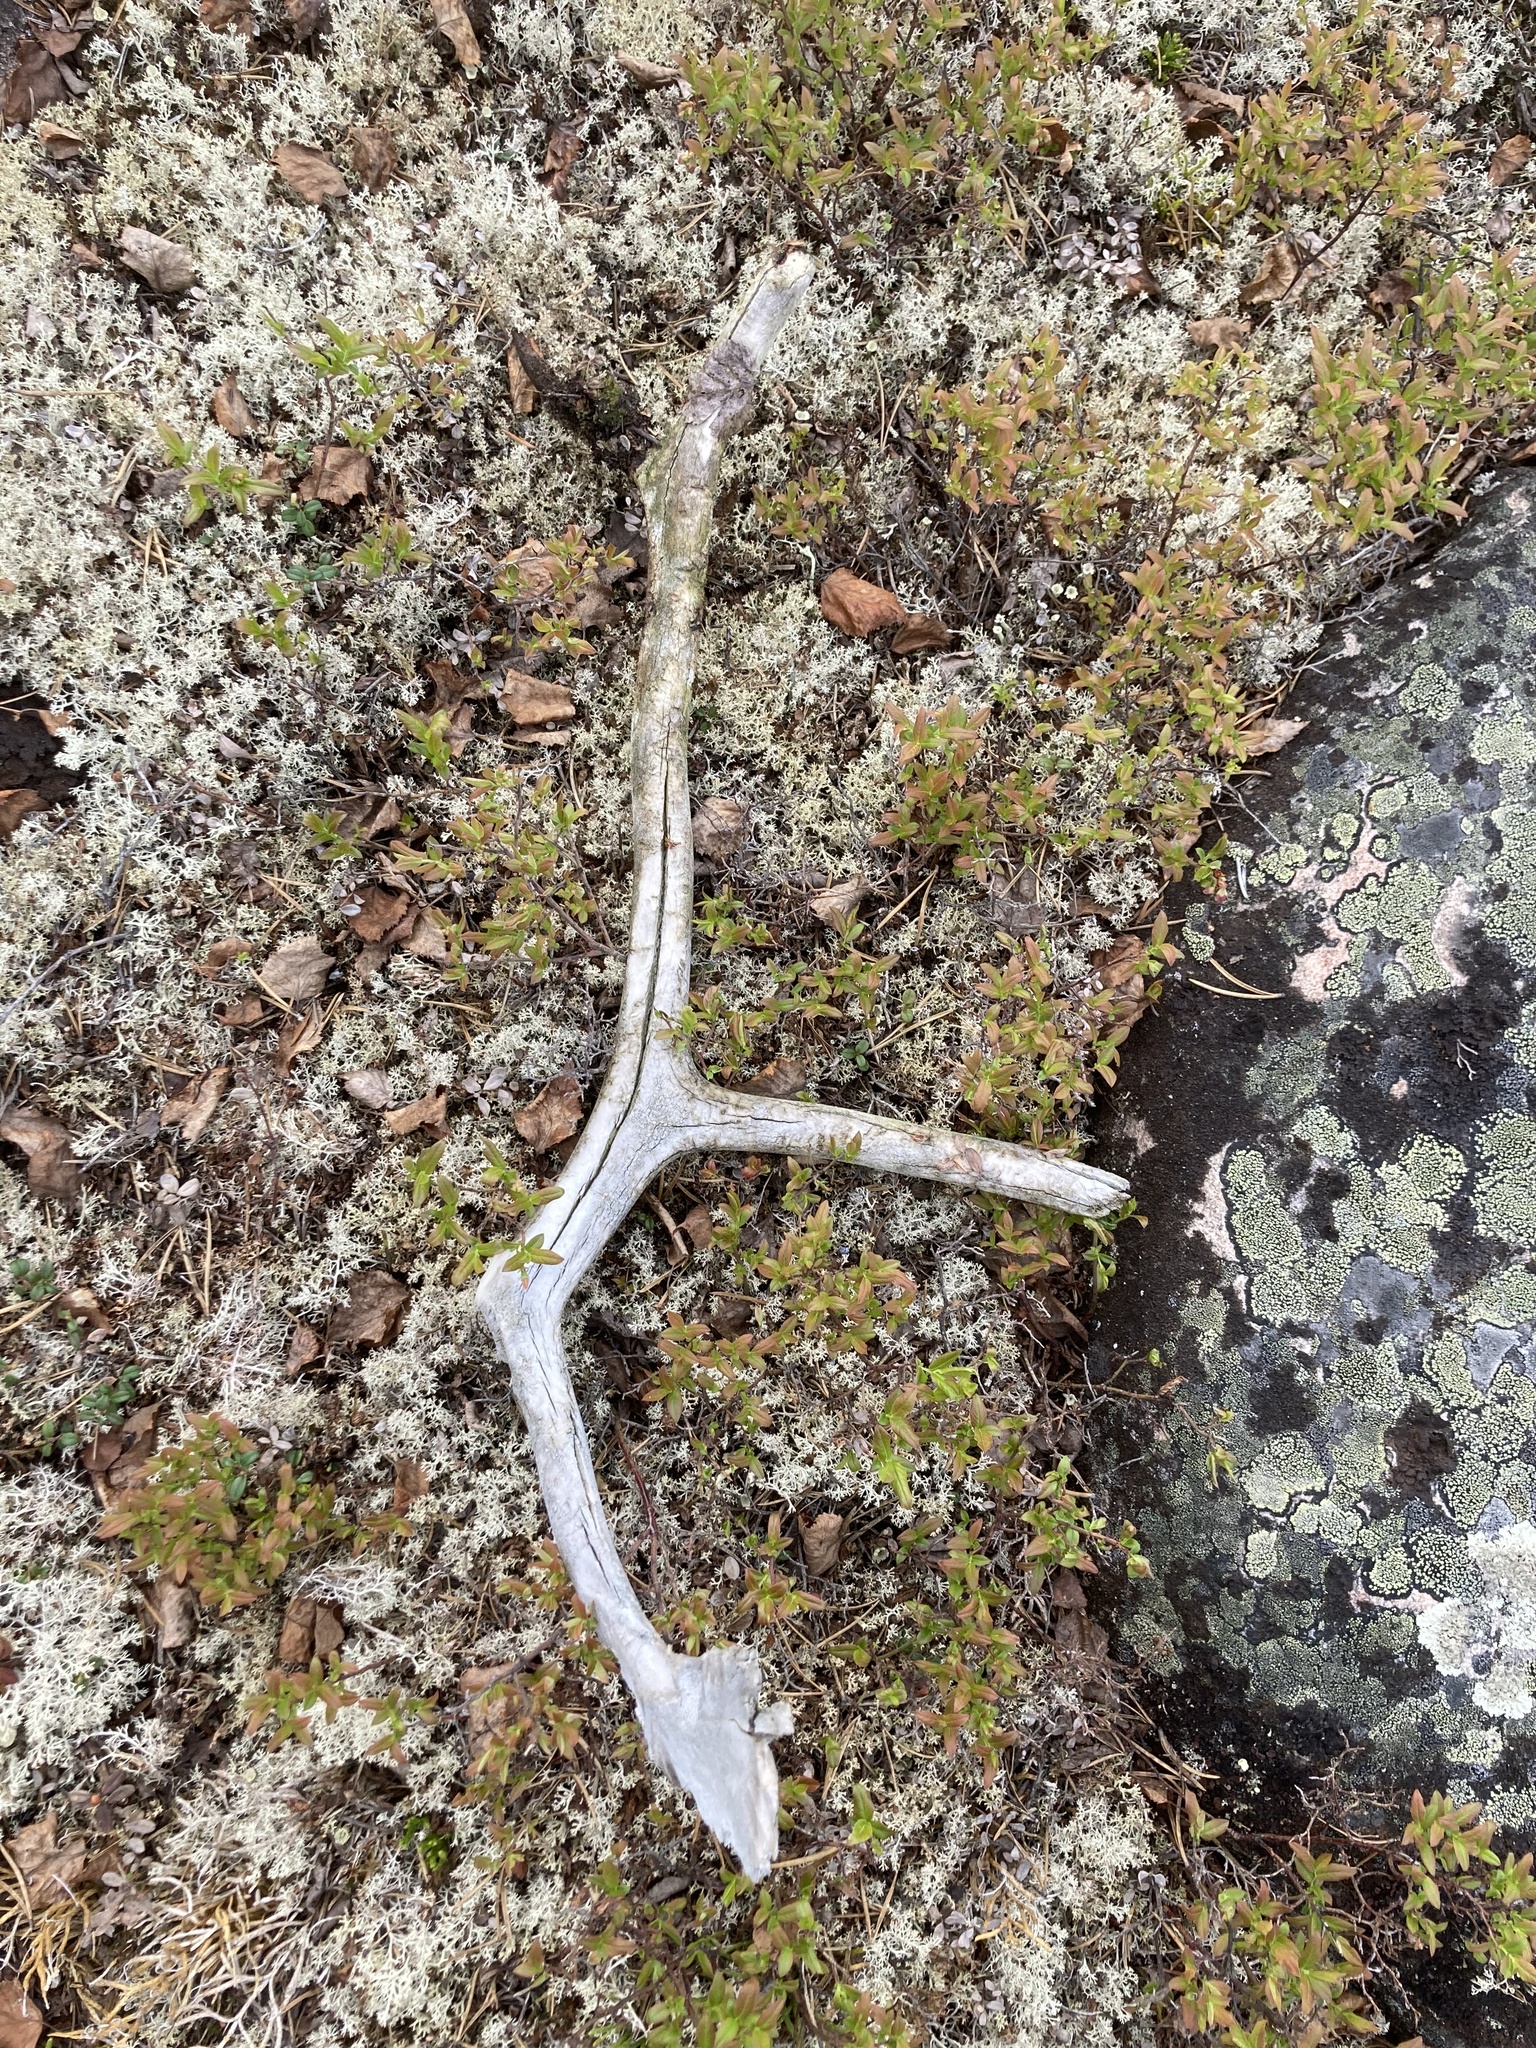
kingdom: Animalia
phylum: Chordata
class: Mammalia
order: Artiodactyla
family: Cervidae
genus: Rangifer
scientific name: Rangifer tarandus
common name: Reindeer
